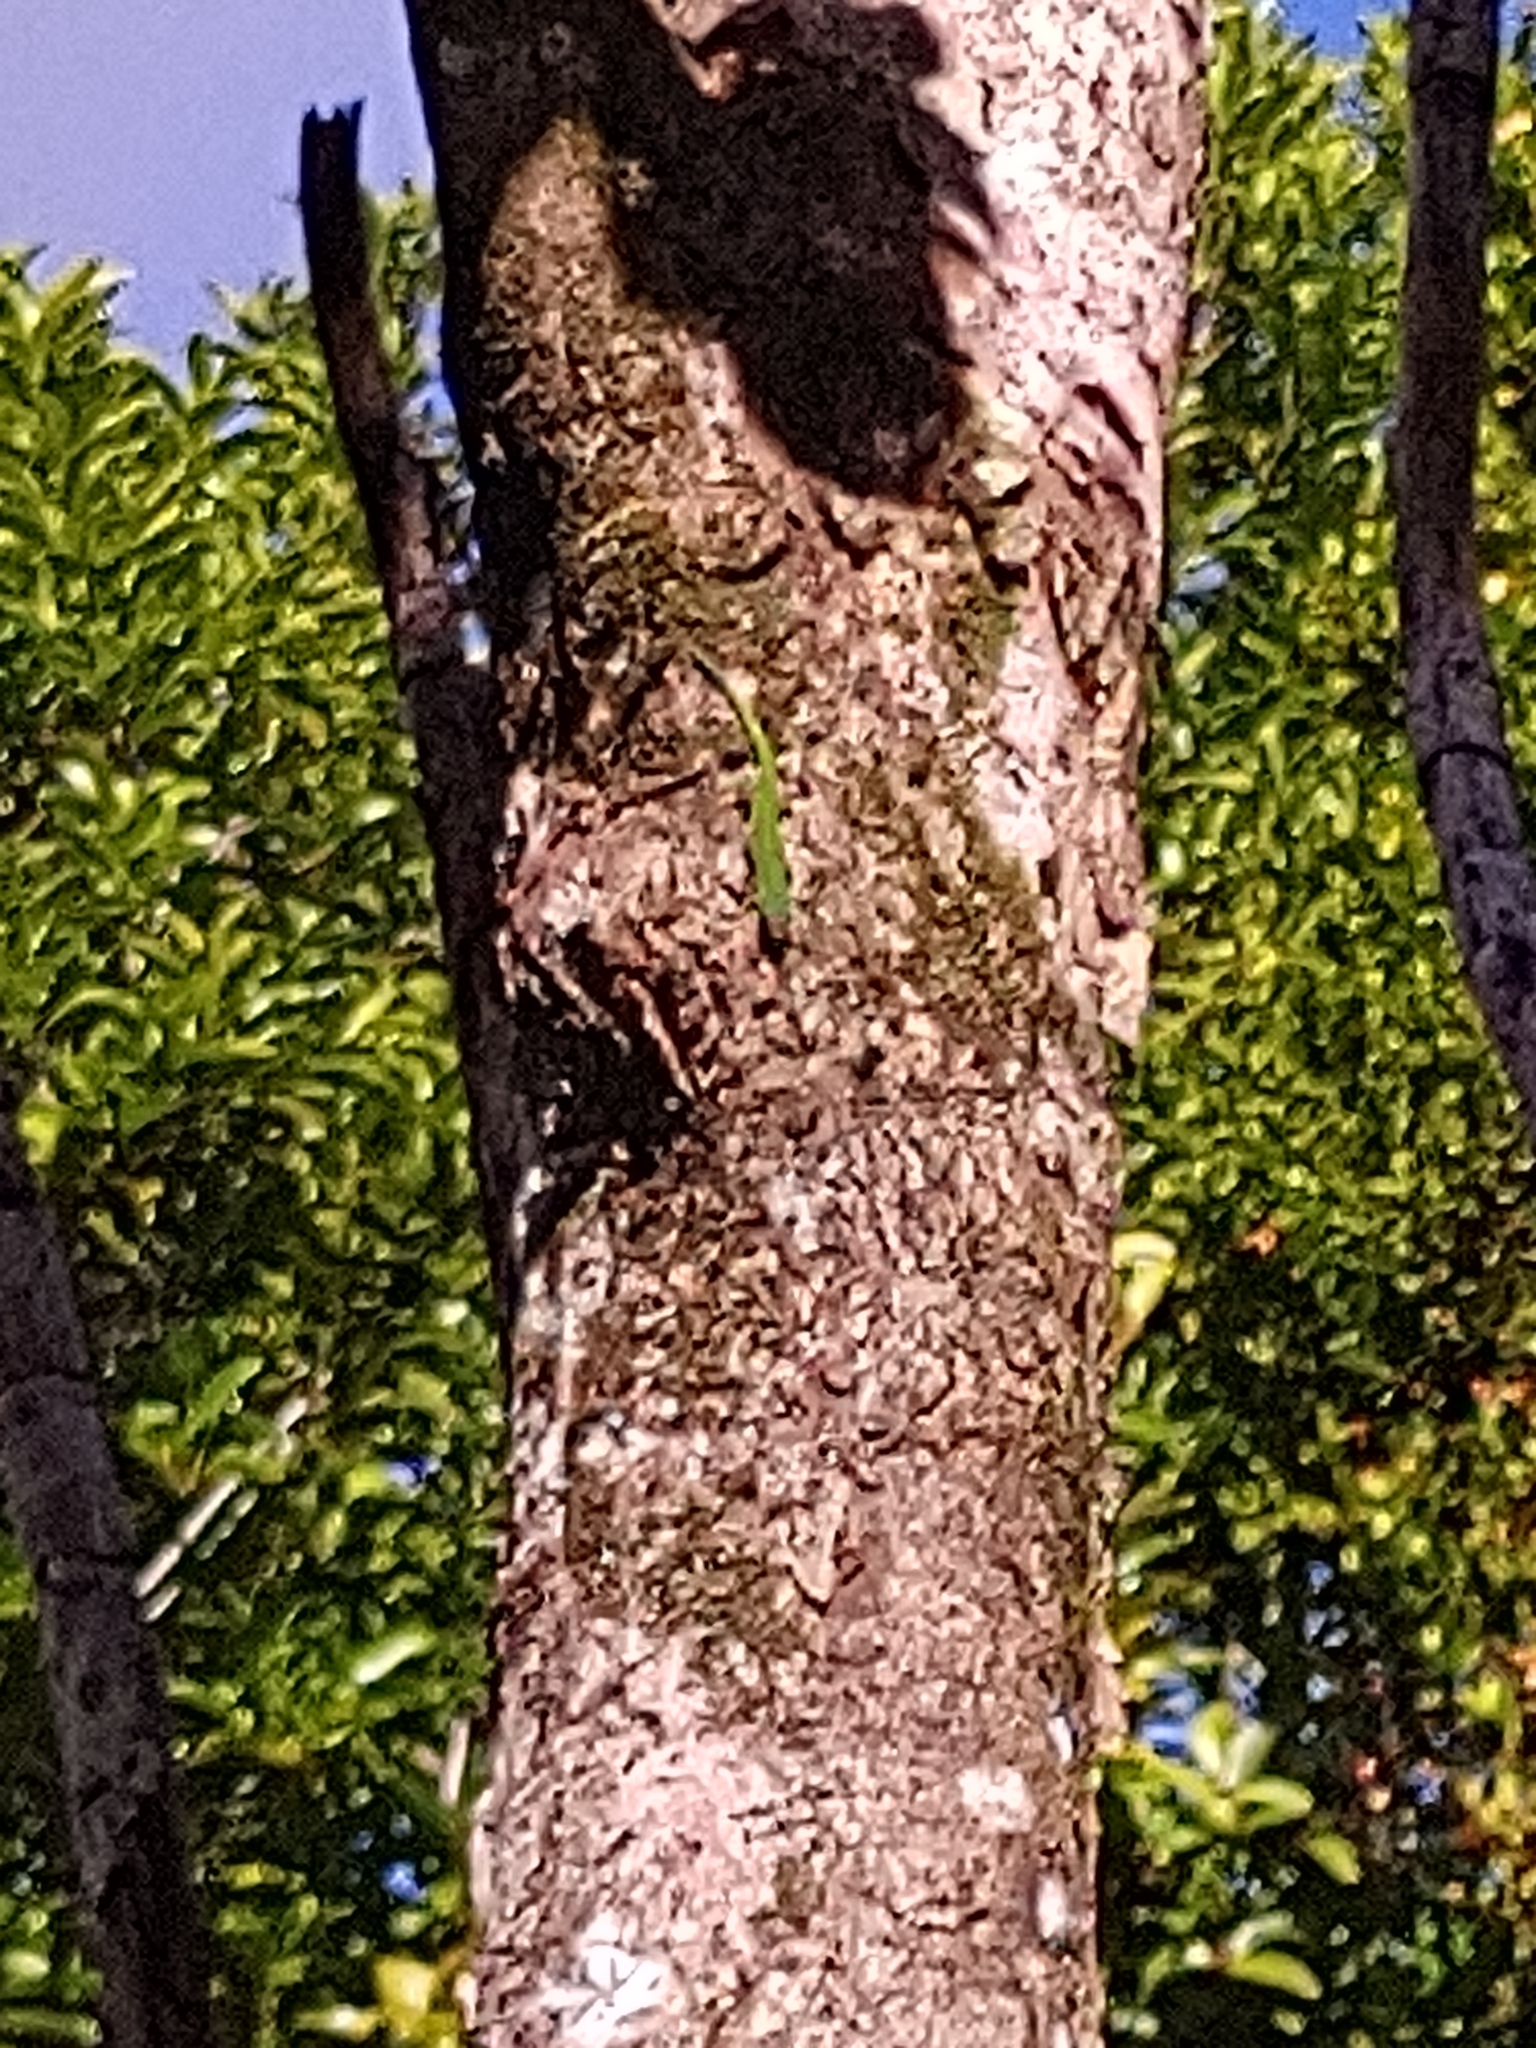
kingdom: Animalia
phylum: Chordata
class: Squamata
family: Gekkonidae
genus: Phelsuma
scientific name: Phelsuma cepediana
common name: Bluetail day gecko
